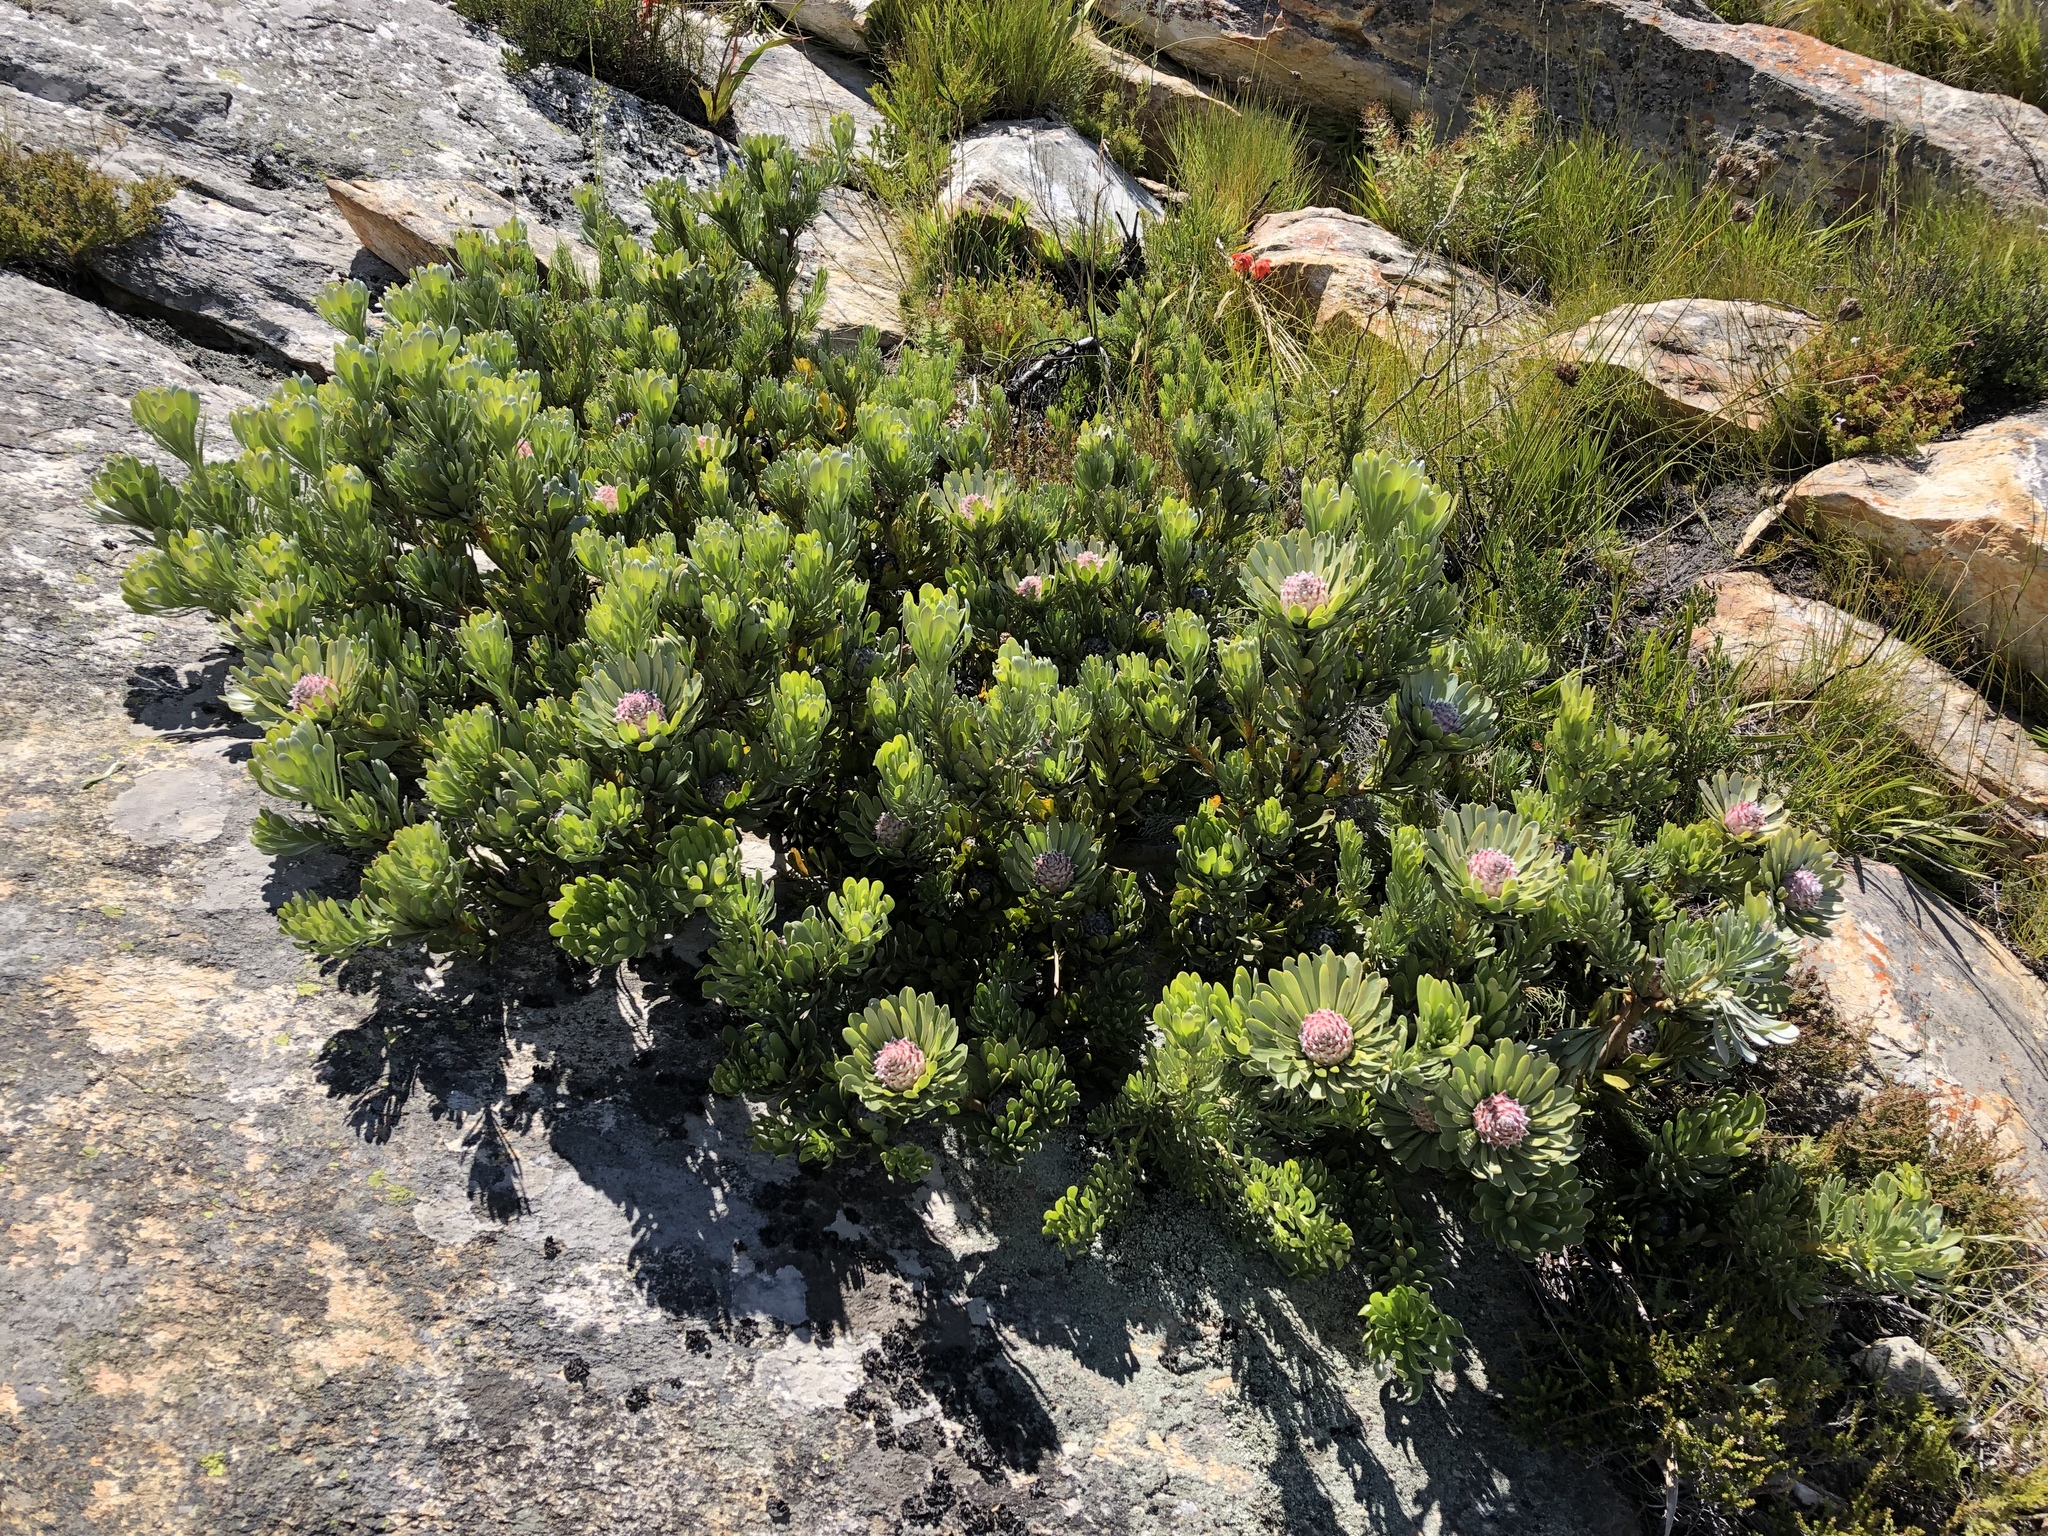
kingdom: Plantae
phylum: Tracheophyta
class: Magnoliopsida
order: Proteales
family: Proteaceae
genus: Leucadendron
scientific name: Leucadendron dregei
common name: Summit conebush
